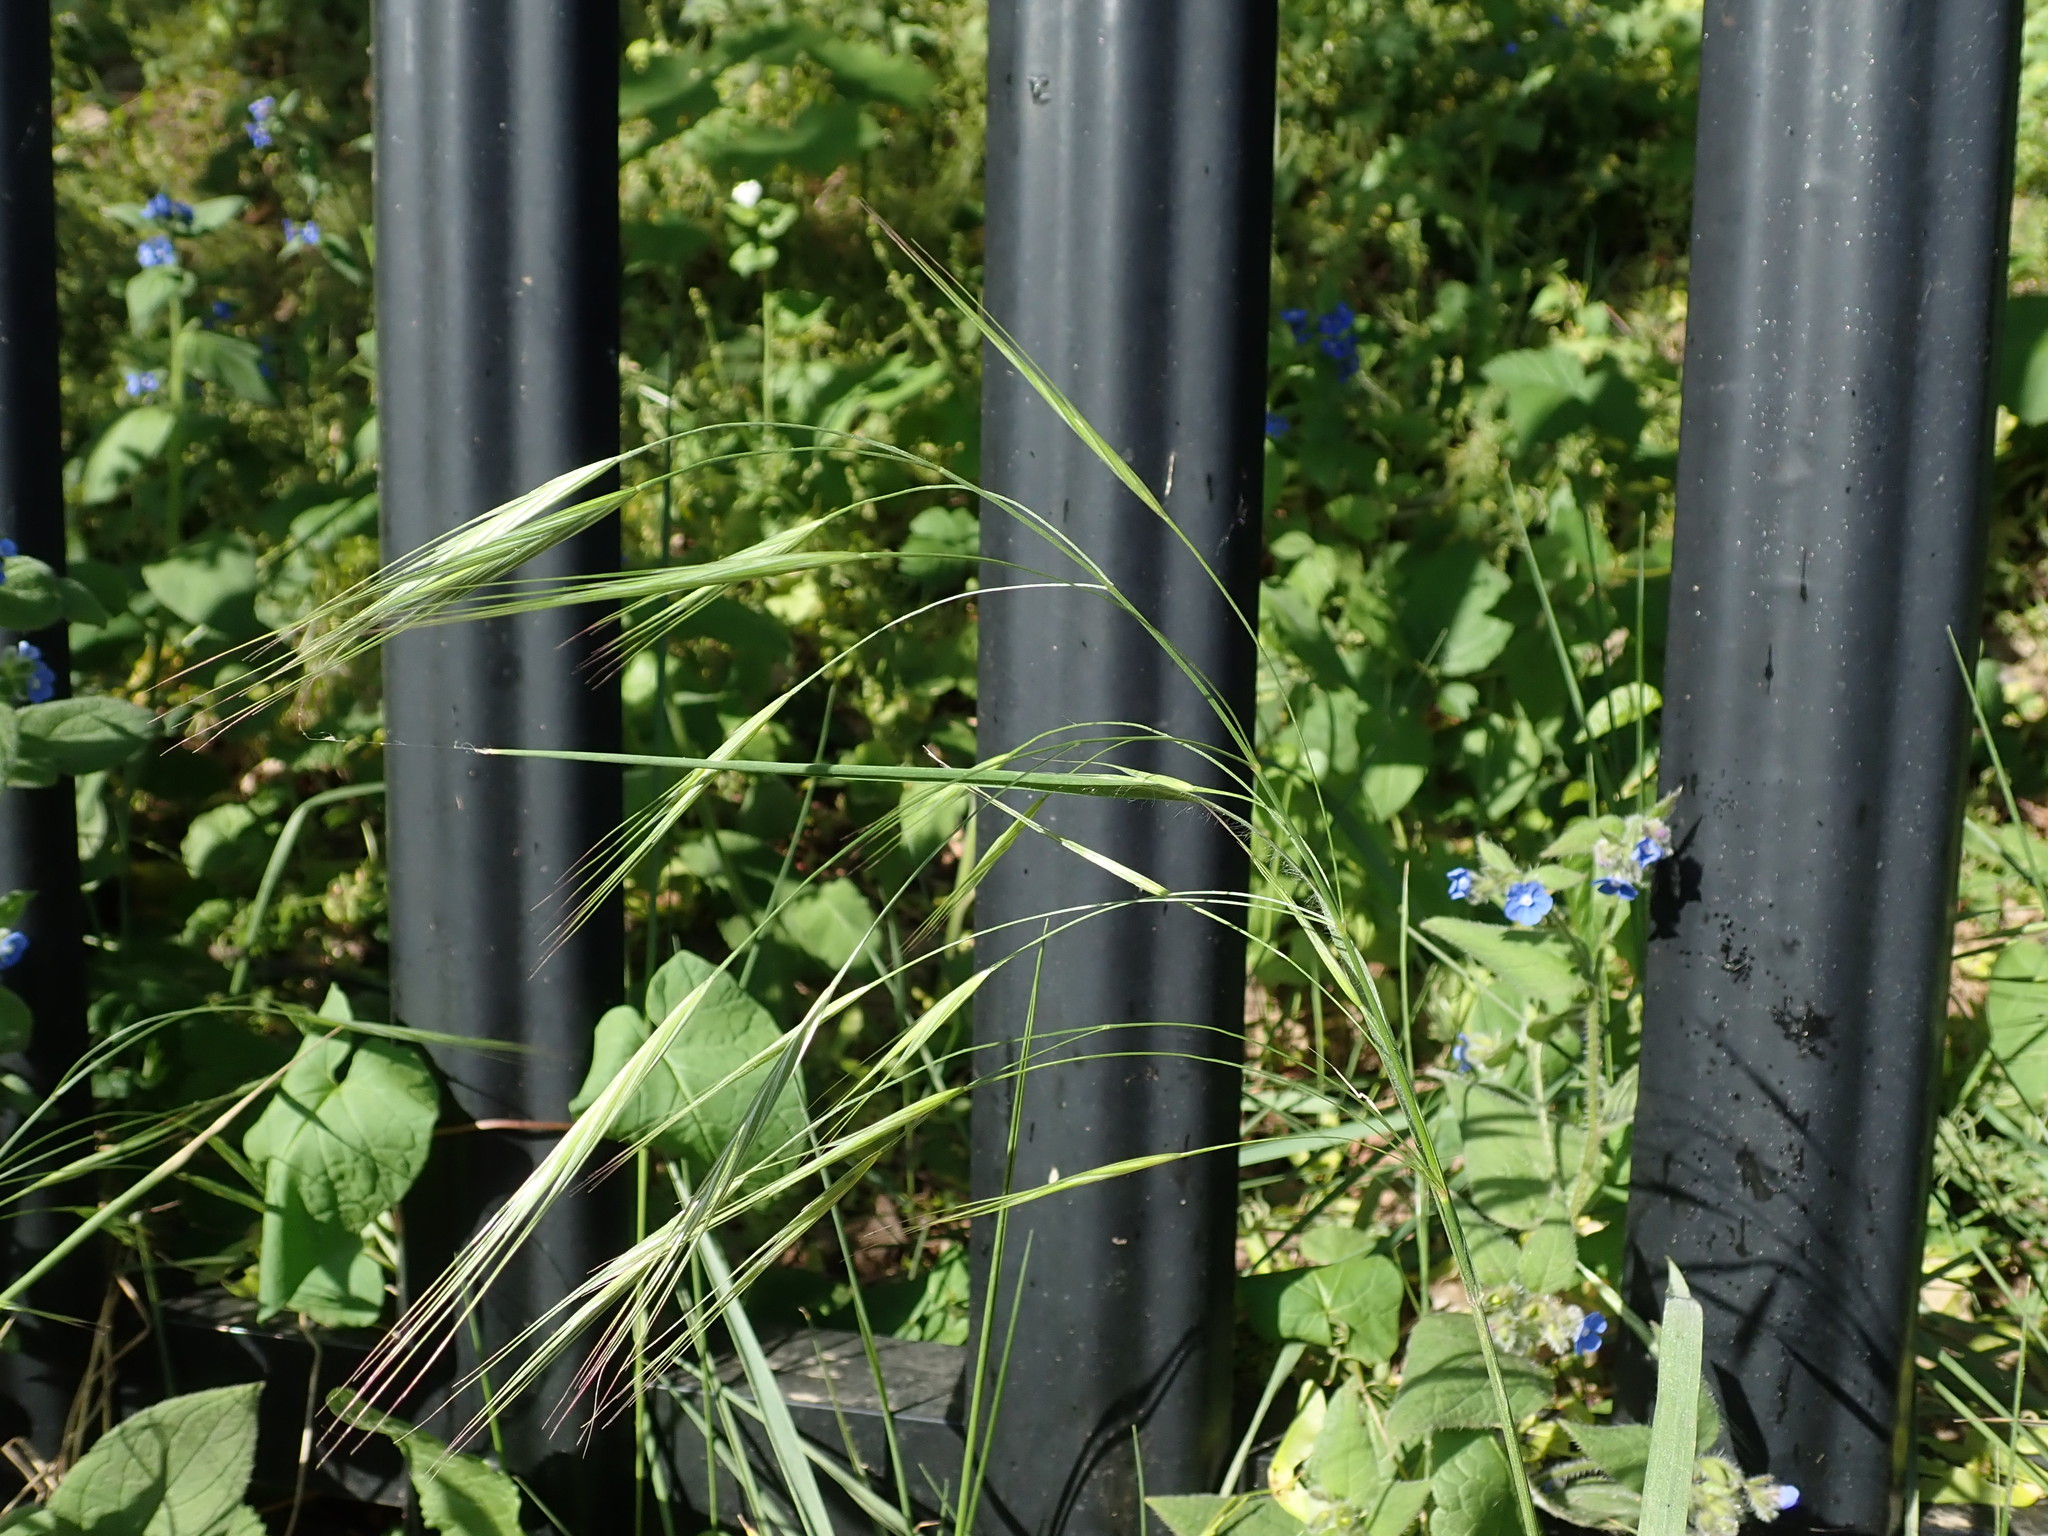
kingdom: Plantae
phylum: Tracheophyta
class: Liliopsida
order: Poales
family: Poaceae
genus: Bromus
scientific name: Bromus sterilis
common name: Poverty brome
